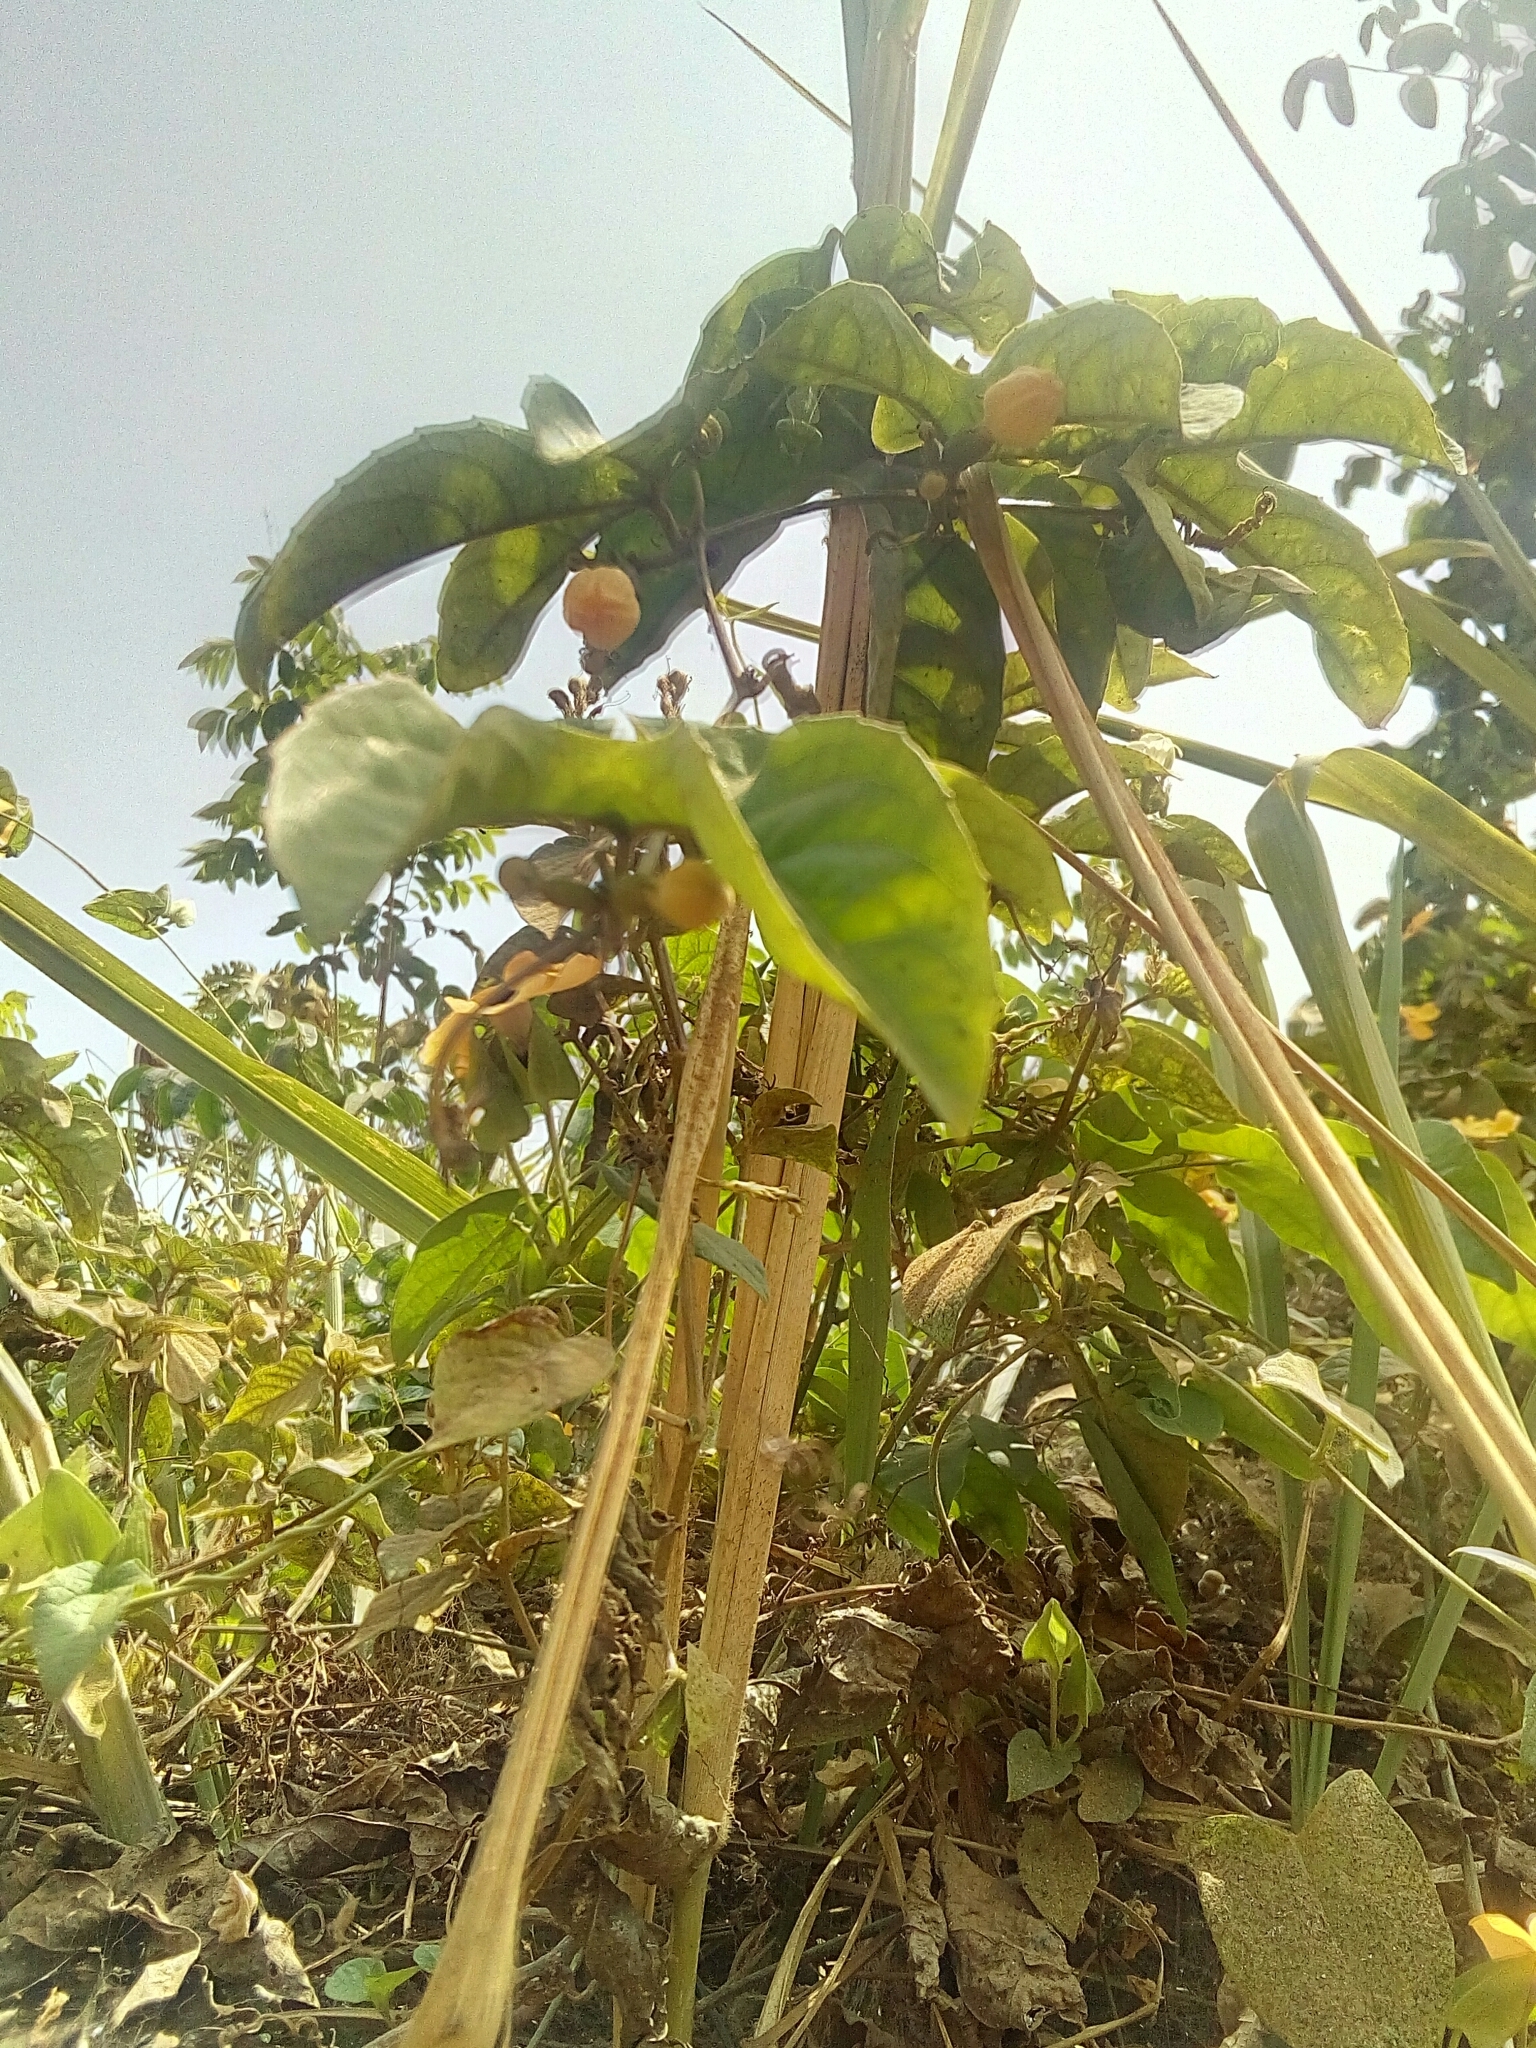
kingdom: Plantae
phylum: Tracheophyta
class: Magnoliopsida
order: Lamiales
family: Acanthaceae
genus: Thunbergia
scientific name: Thunbergia alata
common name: Blackeyed susan vine
